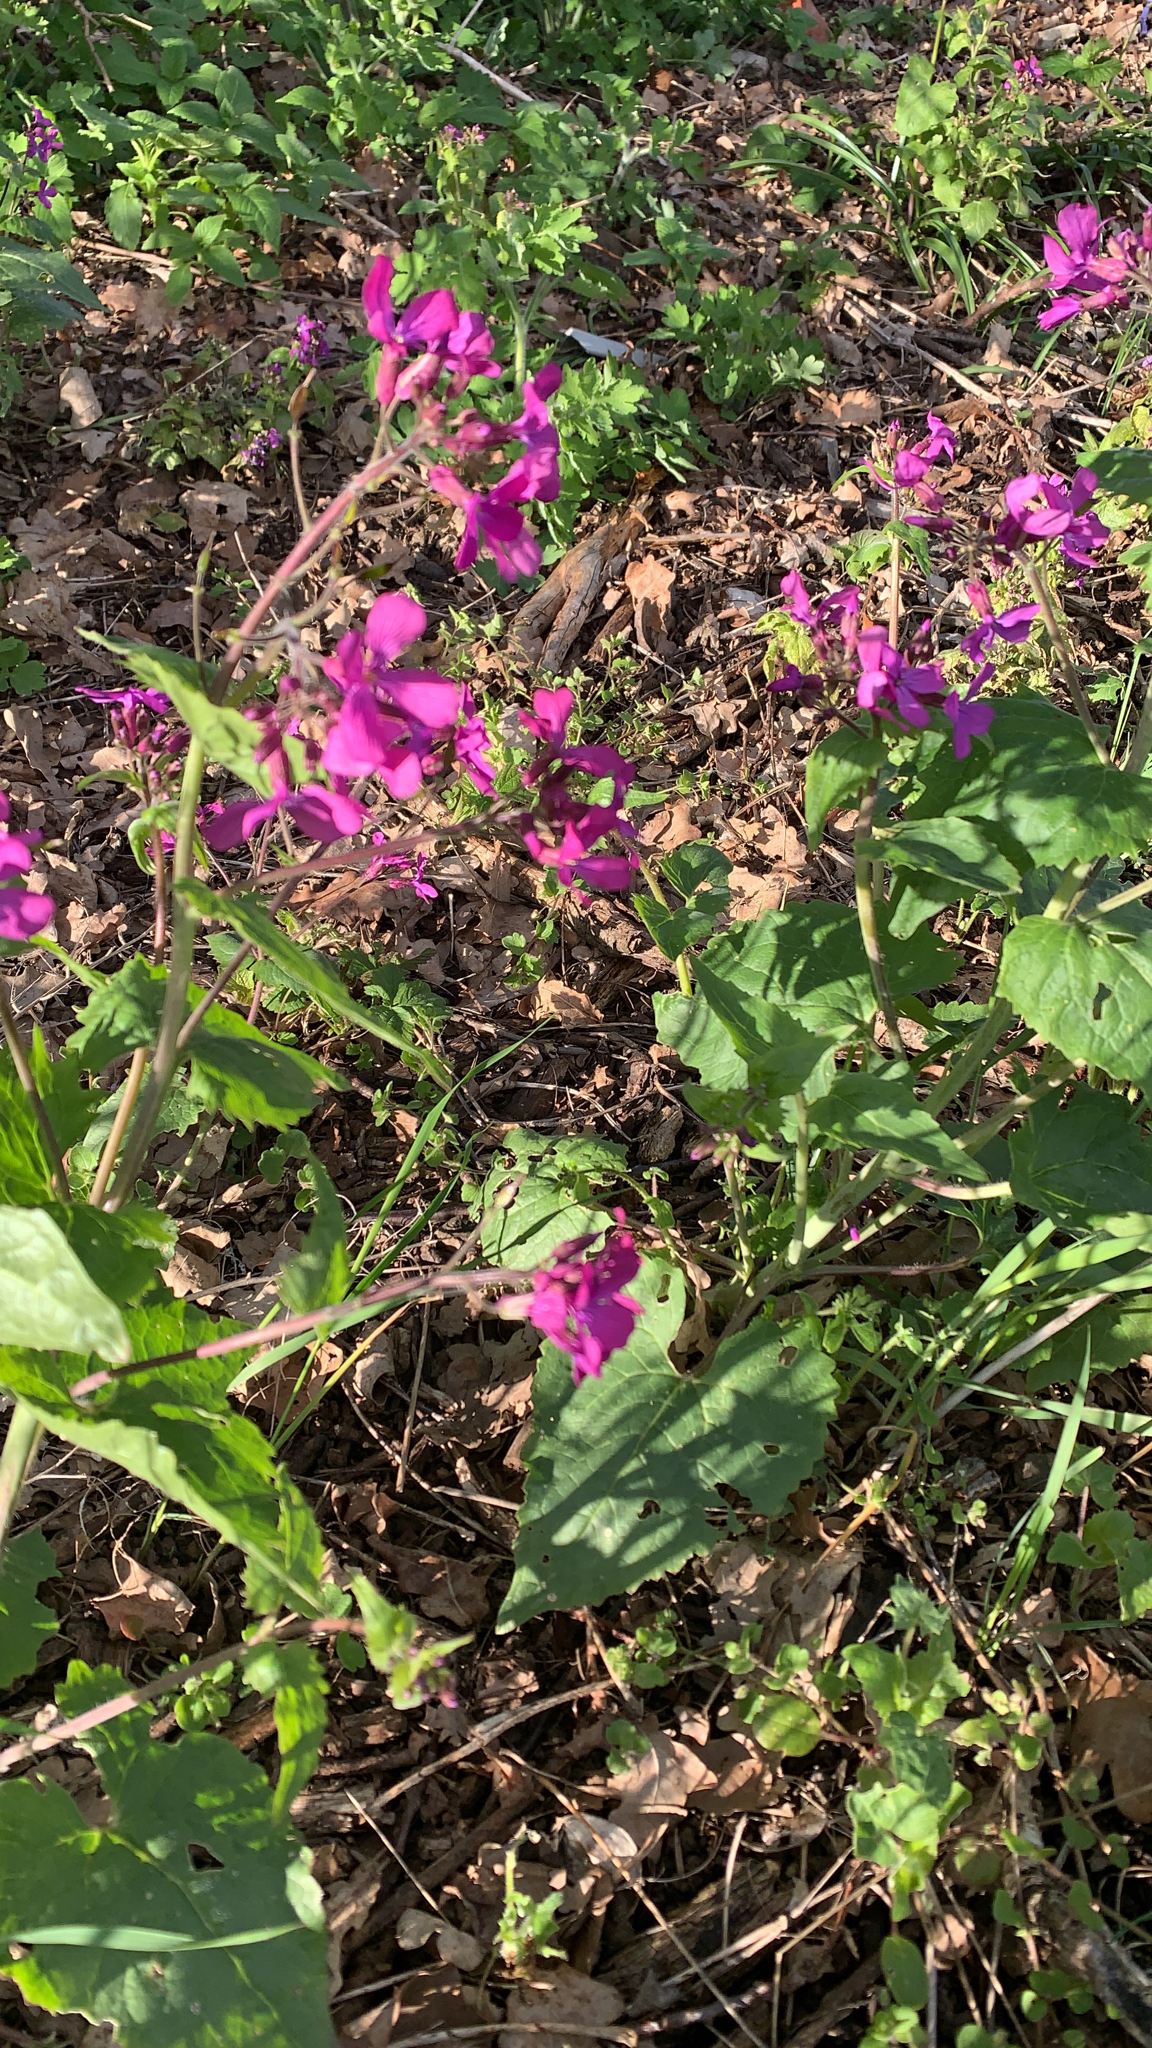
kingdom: Plantae
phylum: Tracheophyta
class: Magnoliopsida
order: Brassicales
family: Brassicaceae
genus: Lunaria
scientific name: Lunaria annua
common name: Honesty
